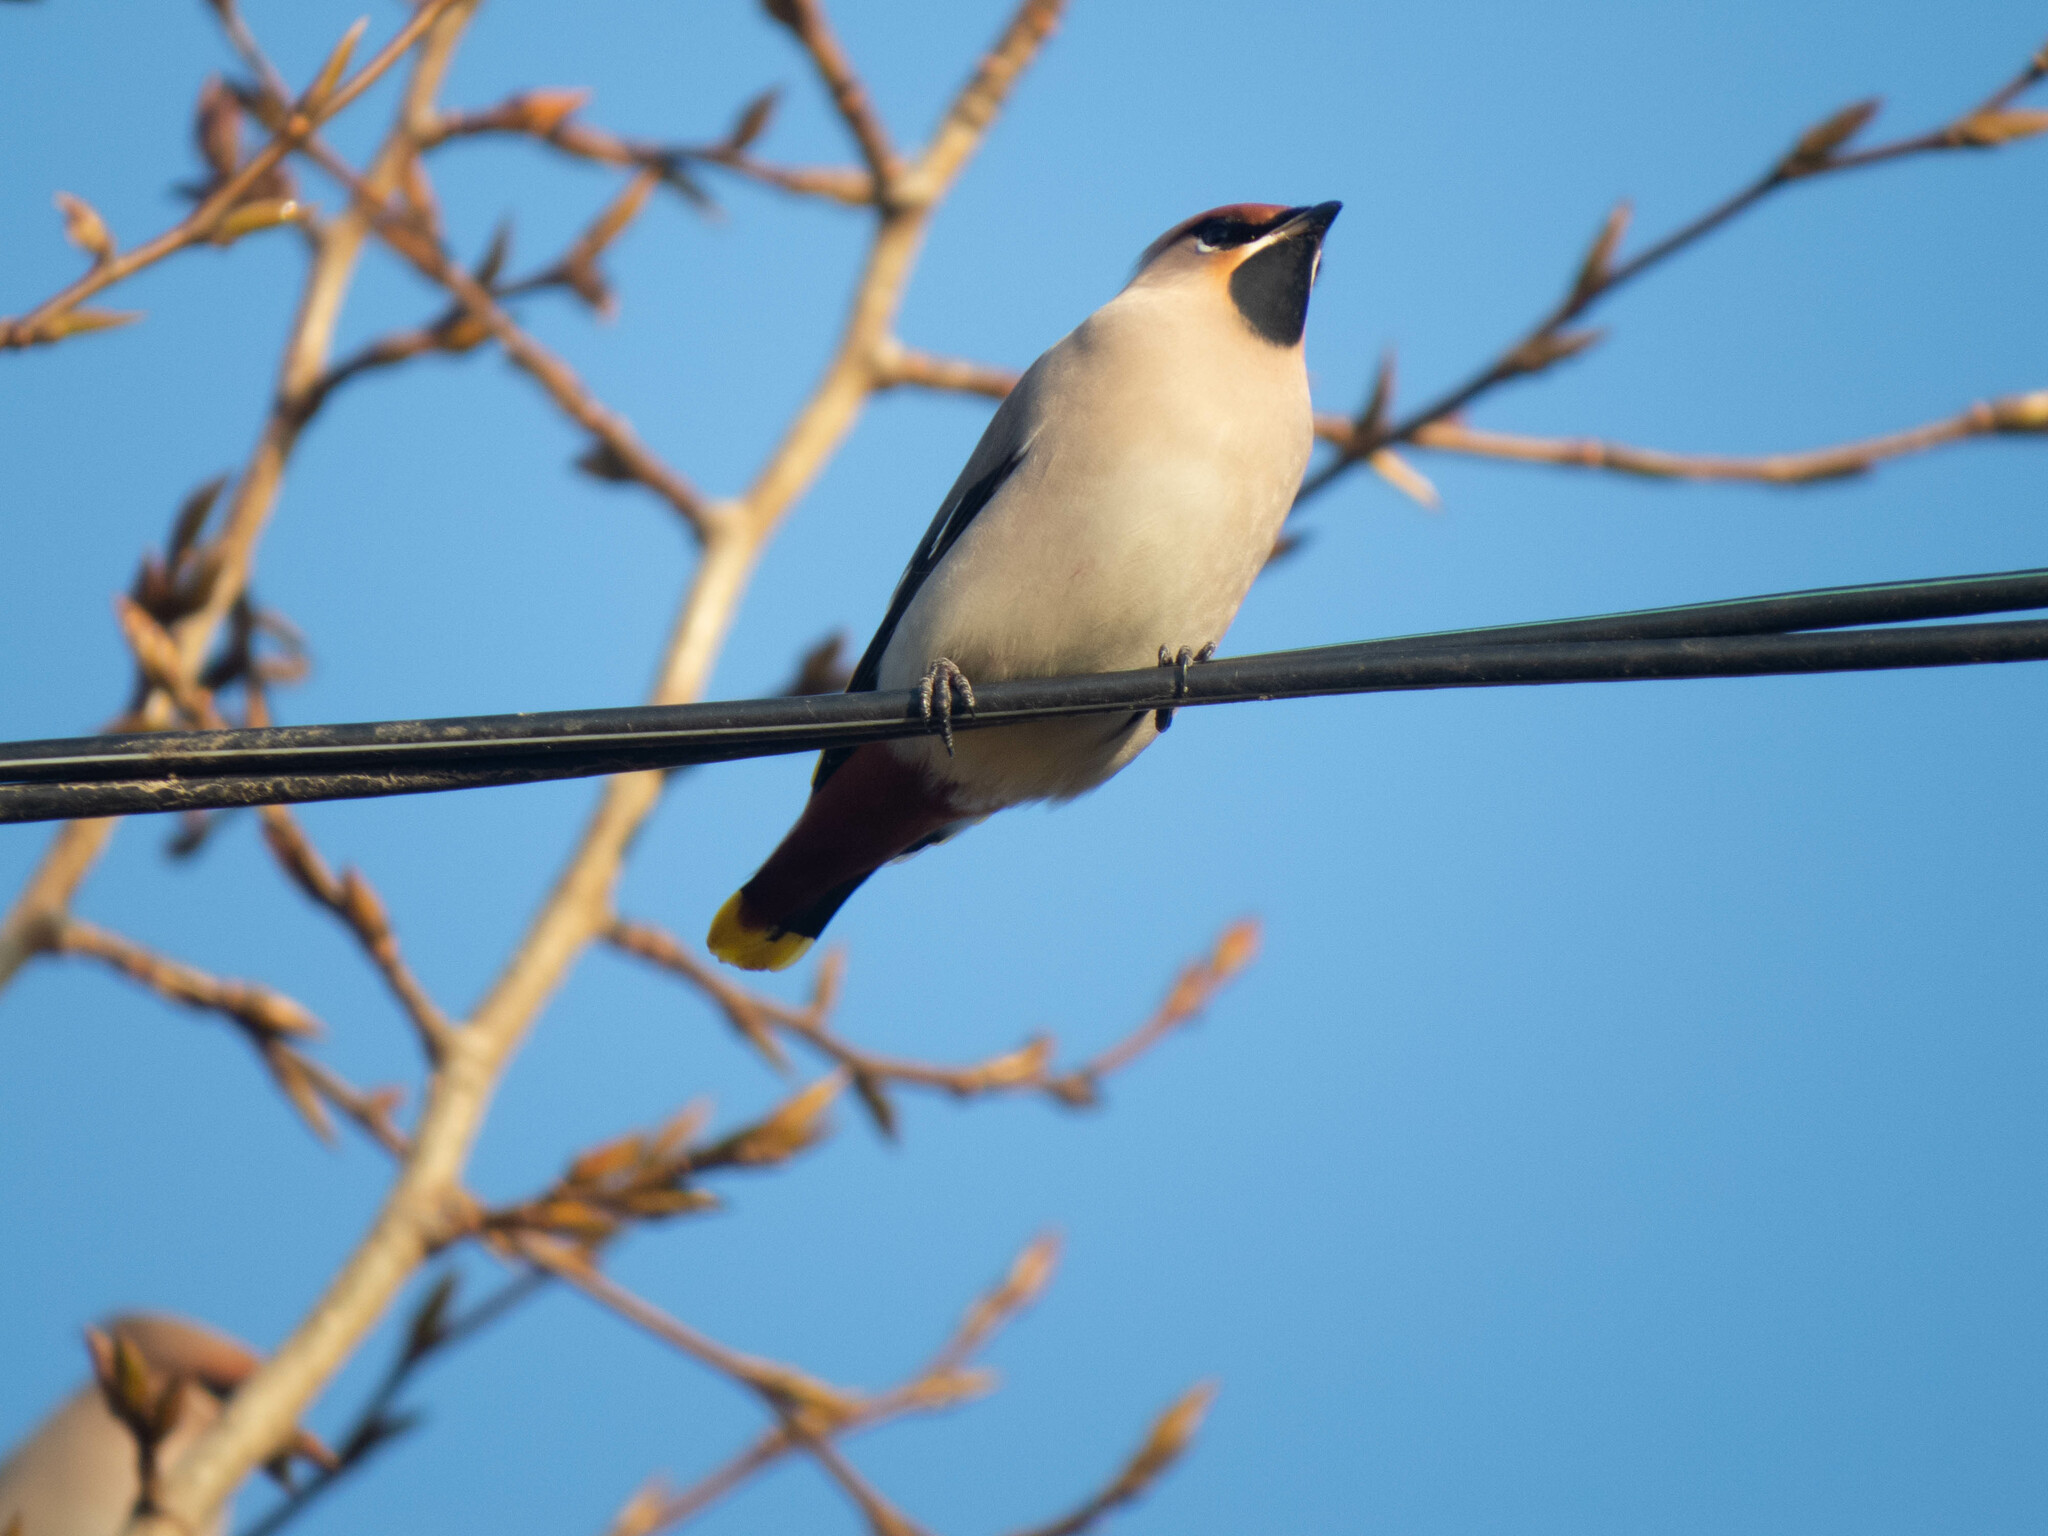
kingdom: Animalia
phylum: Chordata
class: Aves
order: Passeriformes
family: Bombycillidae
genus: Bombycilla
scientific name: Bombycilla garrulus
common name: Bohemian waxwing
